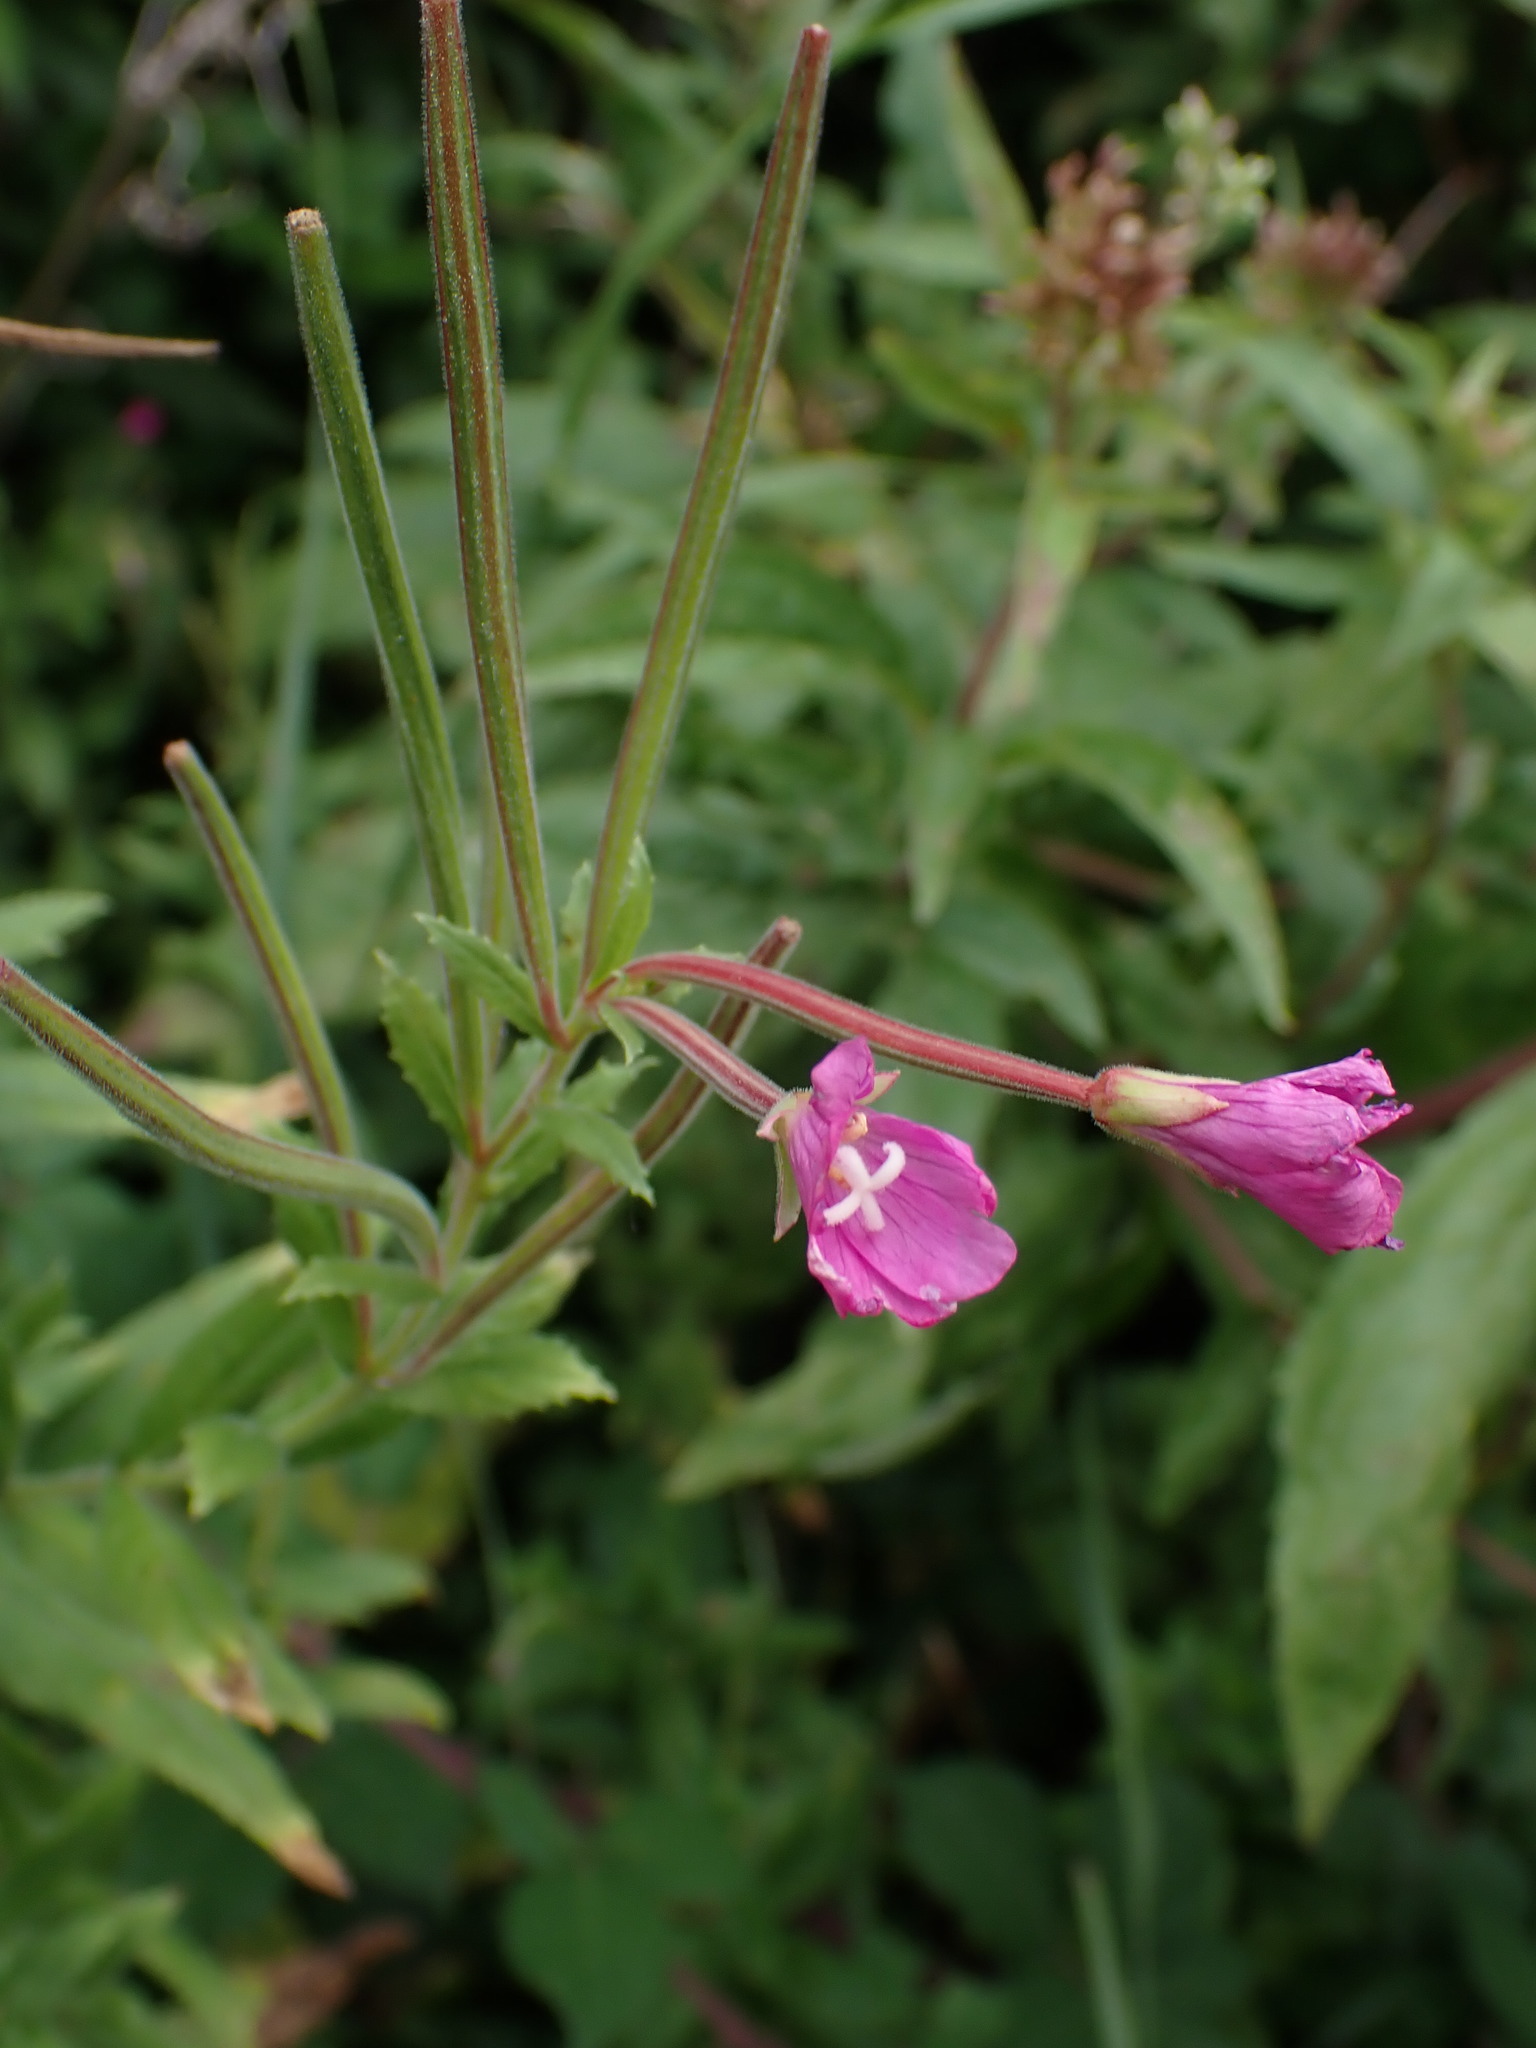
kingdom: Plantae
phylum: Tracheophyta
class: Magnoliopsida
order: Myrtales
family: Onagraceae
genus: Epilobium
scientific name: Epilobium hirsutum
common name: Great willowherb
